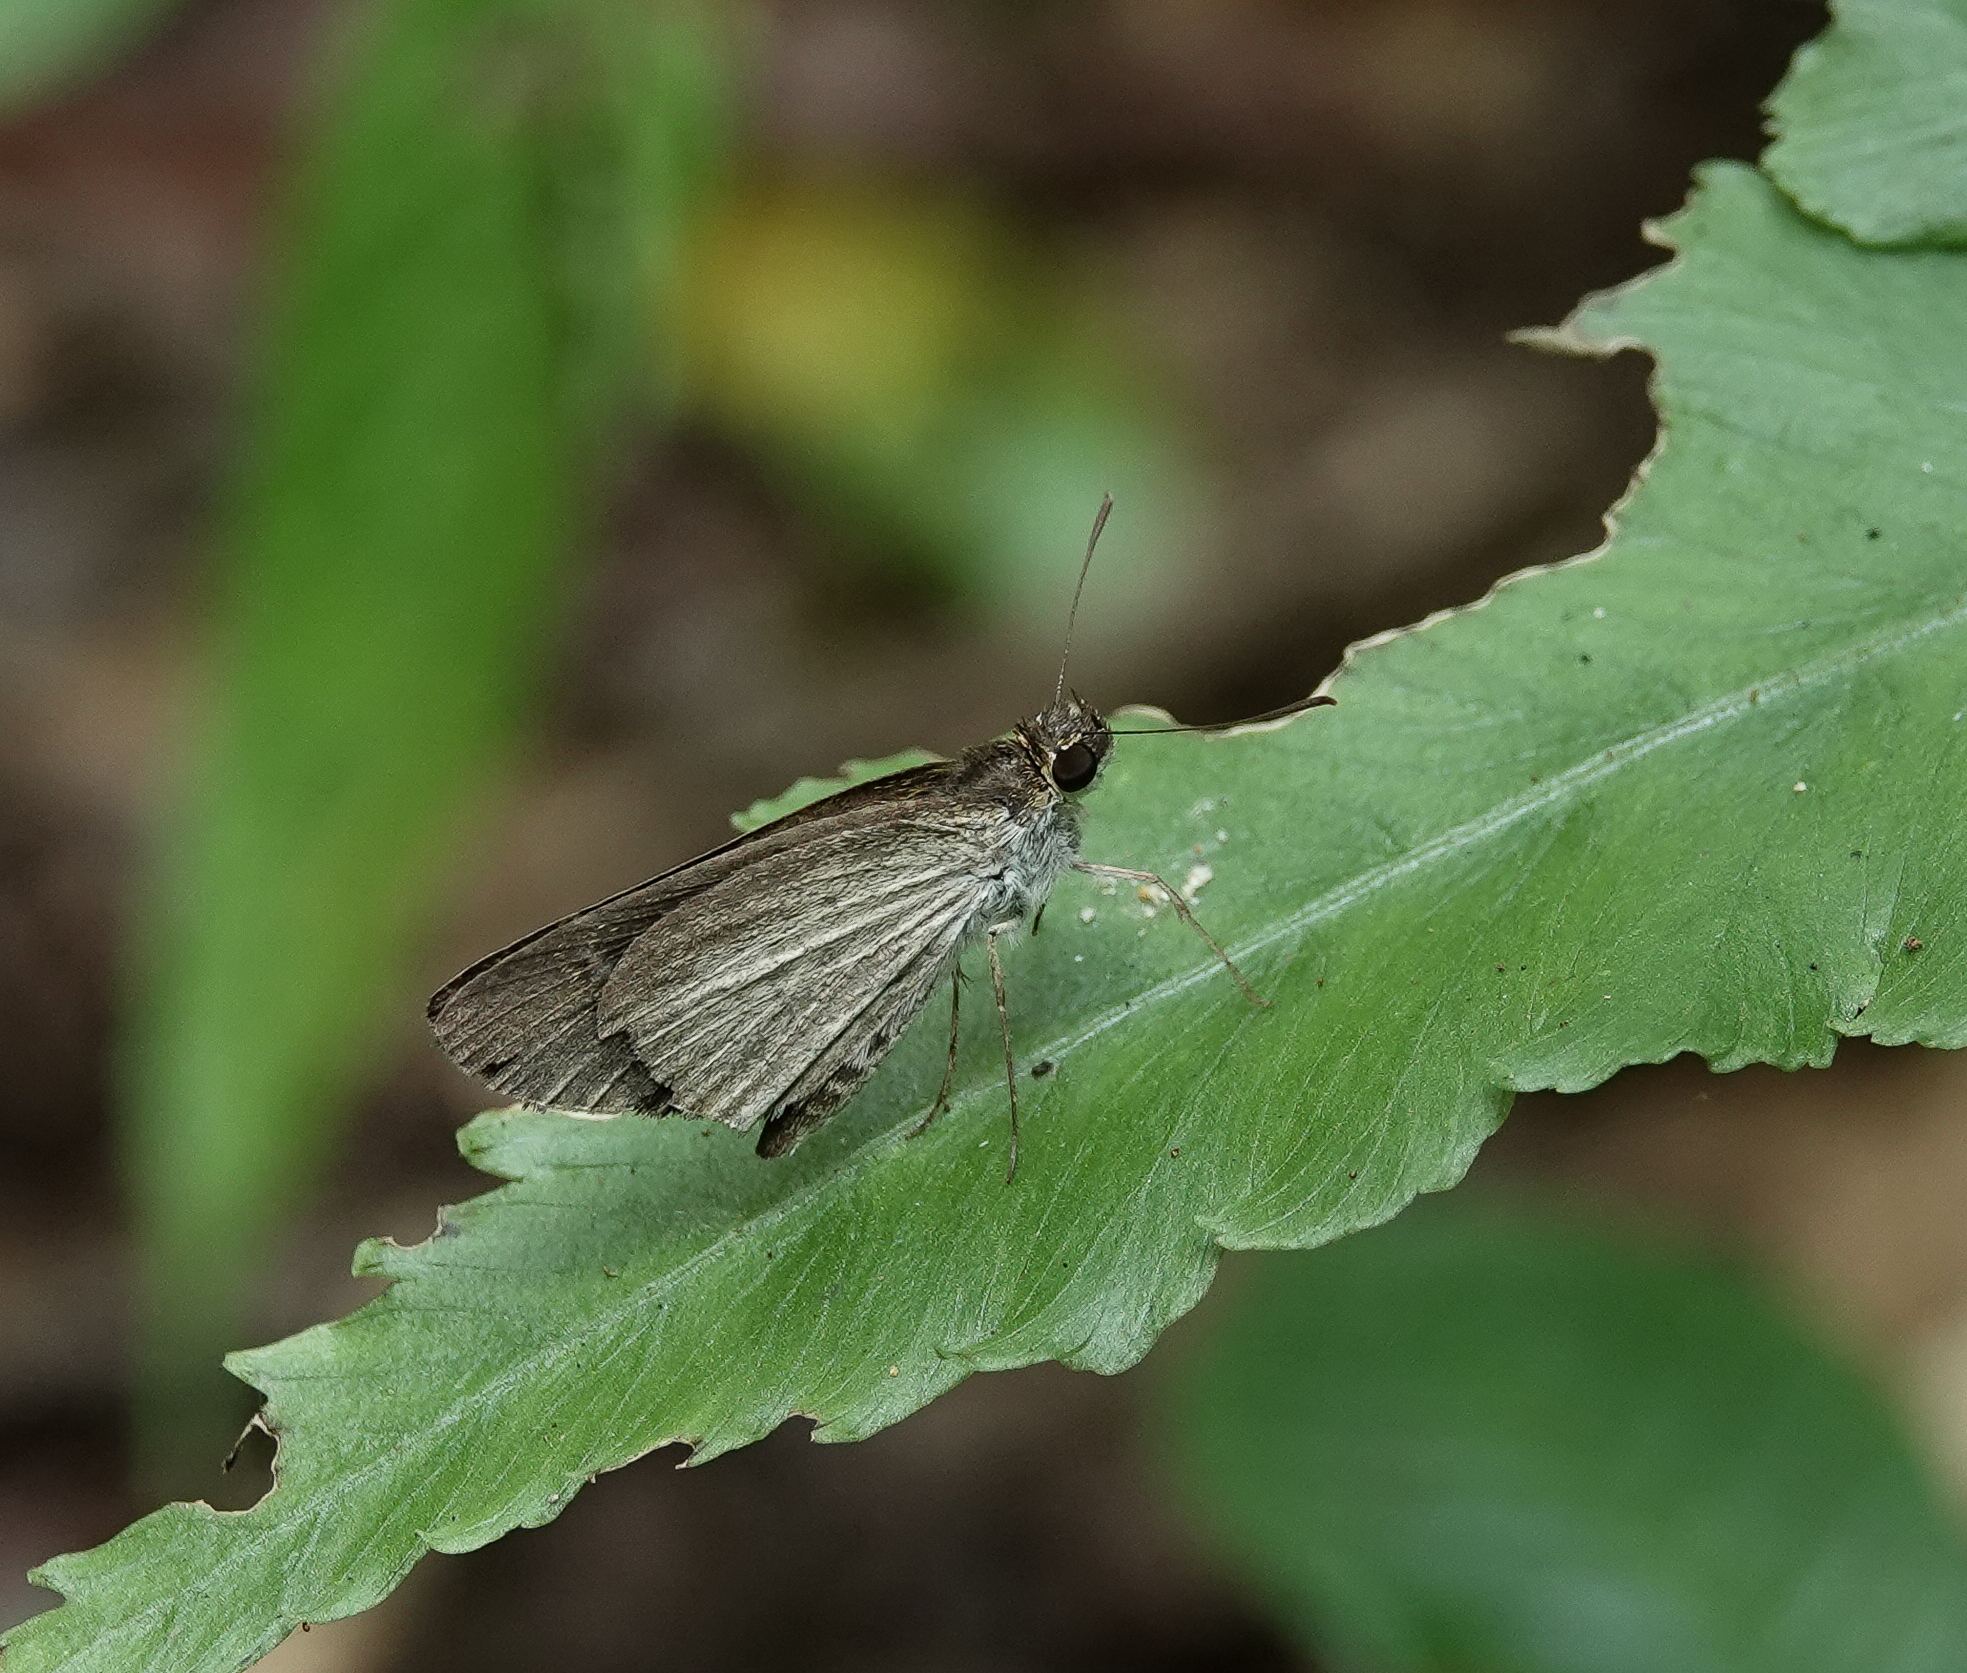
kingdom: Animalia
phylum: Arthropoda
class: Insecta
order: Lepidoptera
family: Hesperiidae
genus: Suada
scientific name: Suada swerga
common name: Grass bob
